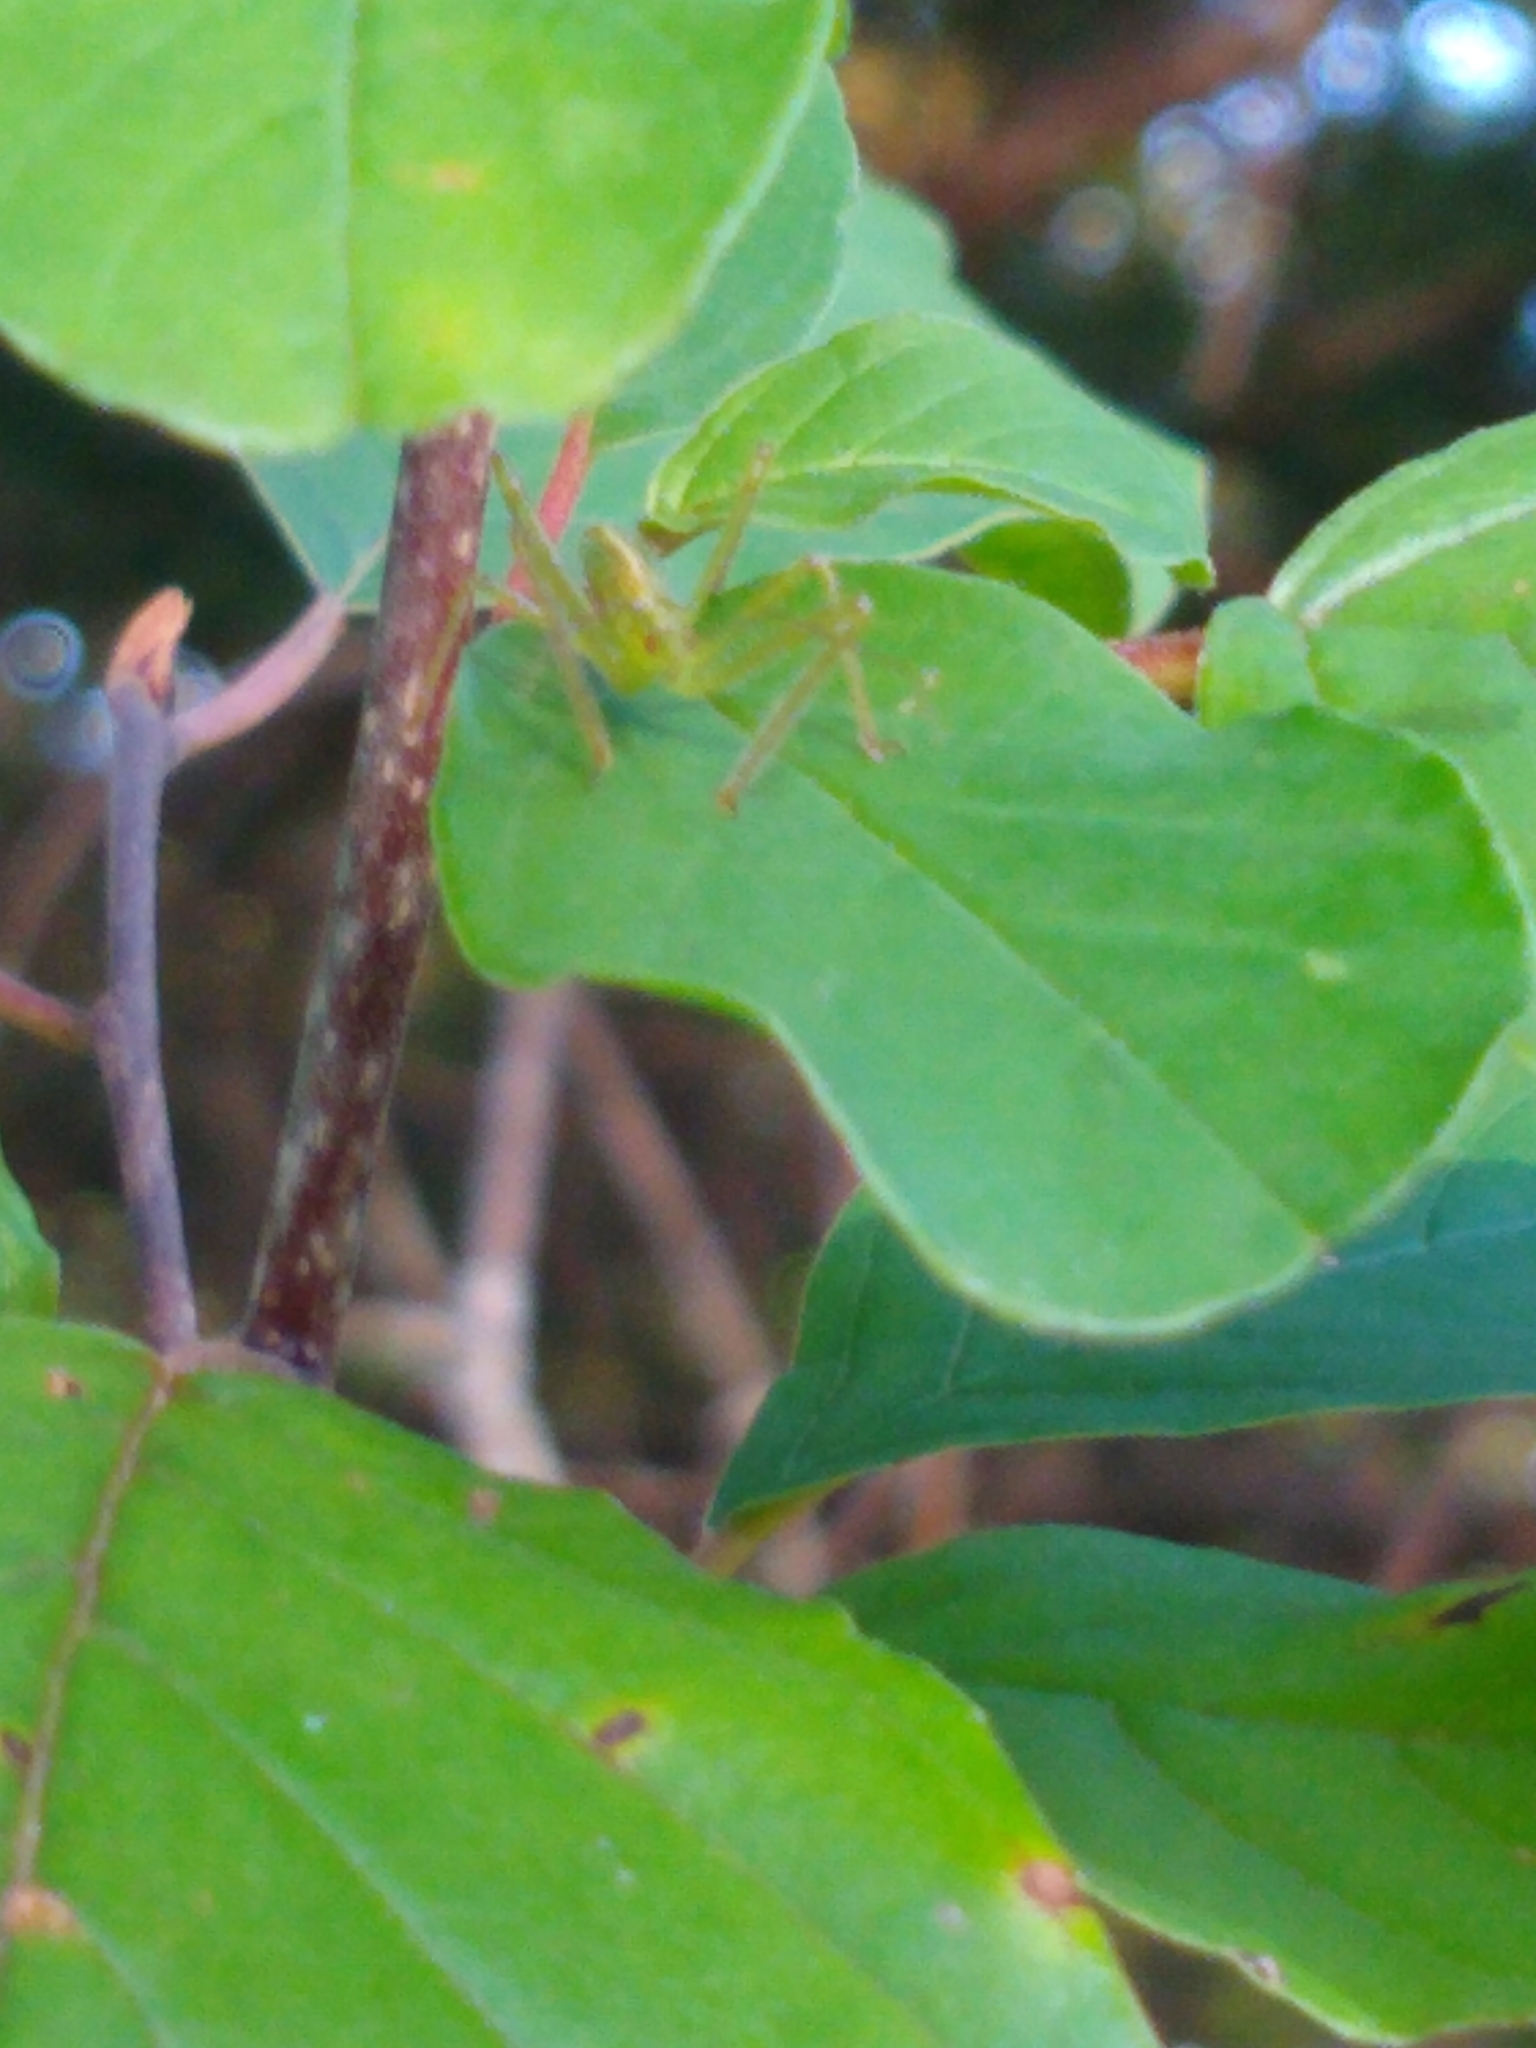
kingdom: Animalia
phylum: Arthropoda
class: Insecta
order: Hemiptera
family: Reduviidae
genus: Zelus
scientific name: Zelus luridus
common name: Pale green assassin bug
